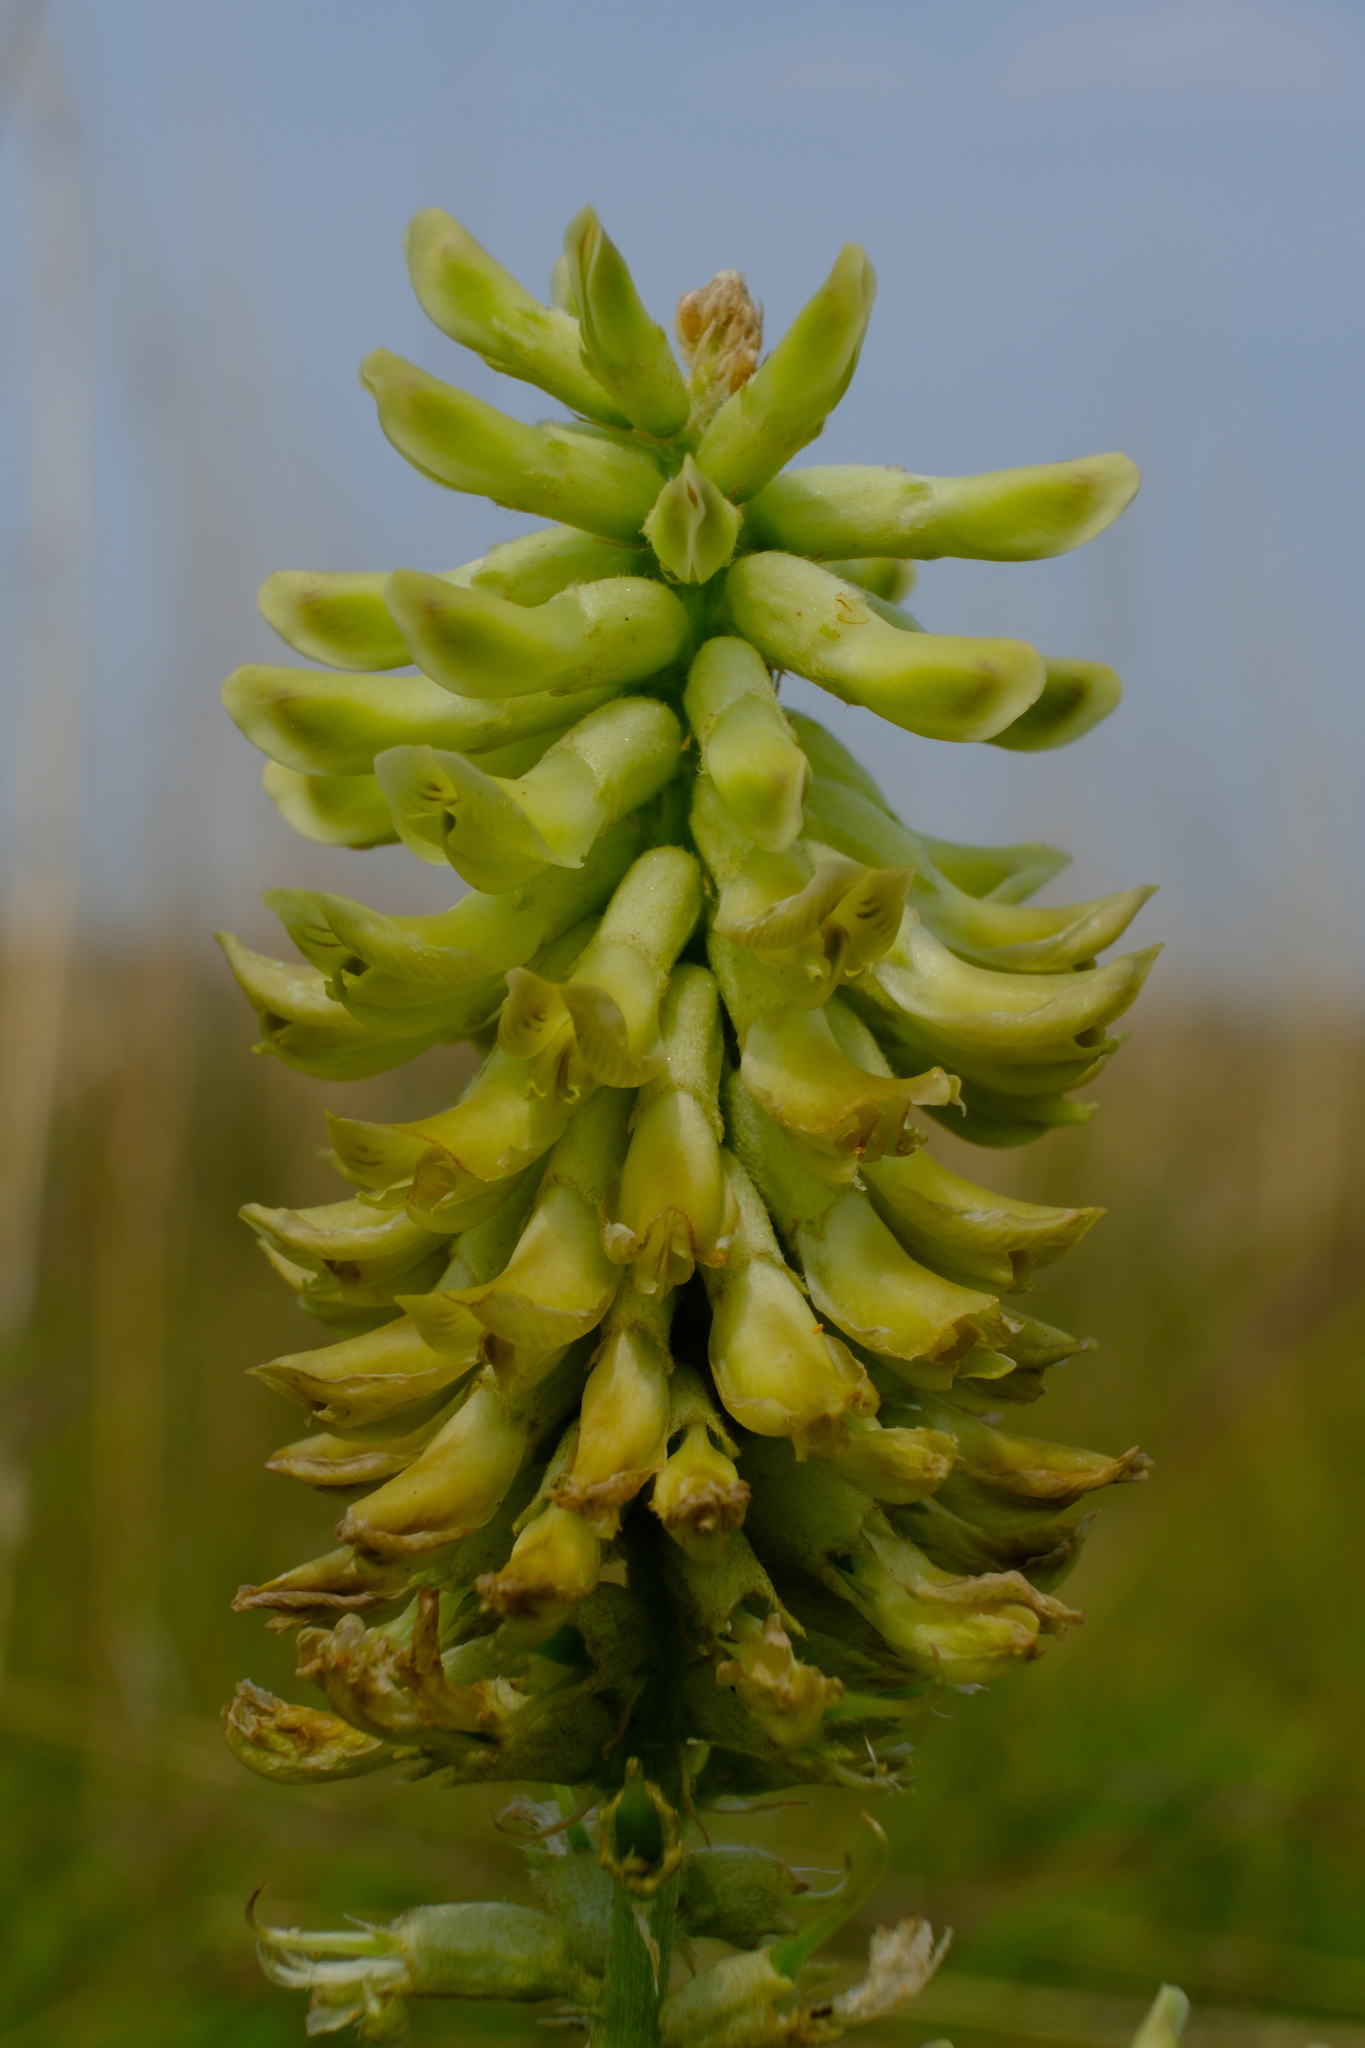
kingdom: Plantae
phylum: Tracheophyta
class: Magnoliopsida
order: Fabales
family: Fabaceae
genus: Astragalus
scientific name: Astragalus canadensis
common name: Canada milk-vetch
